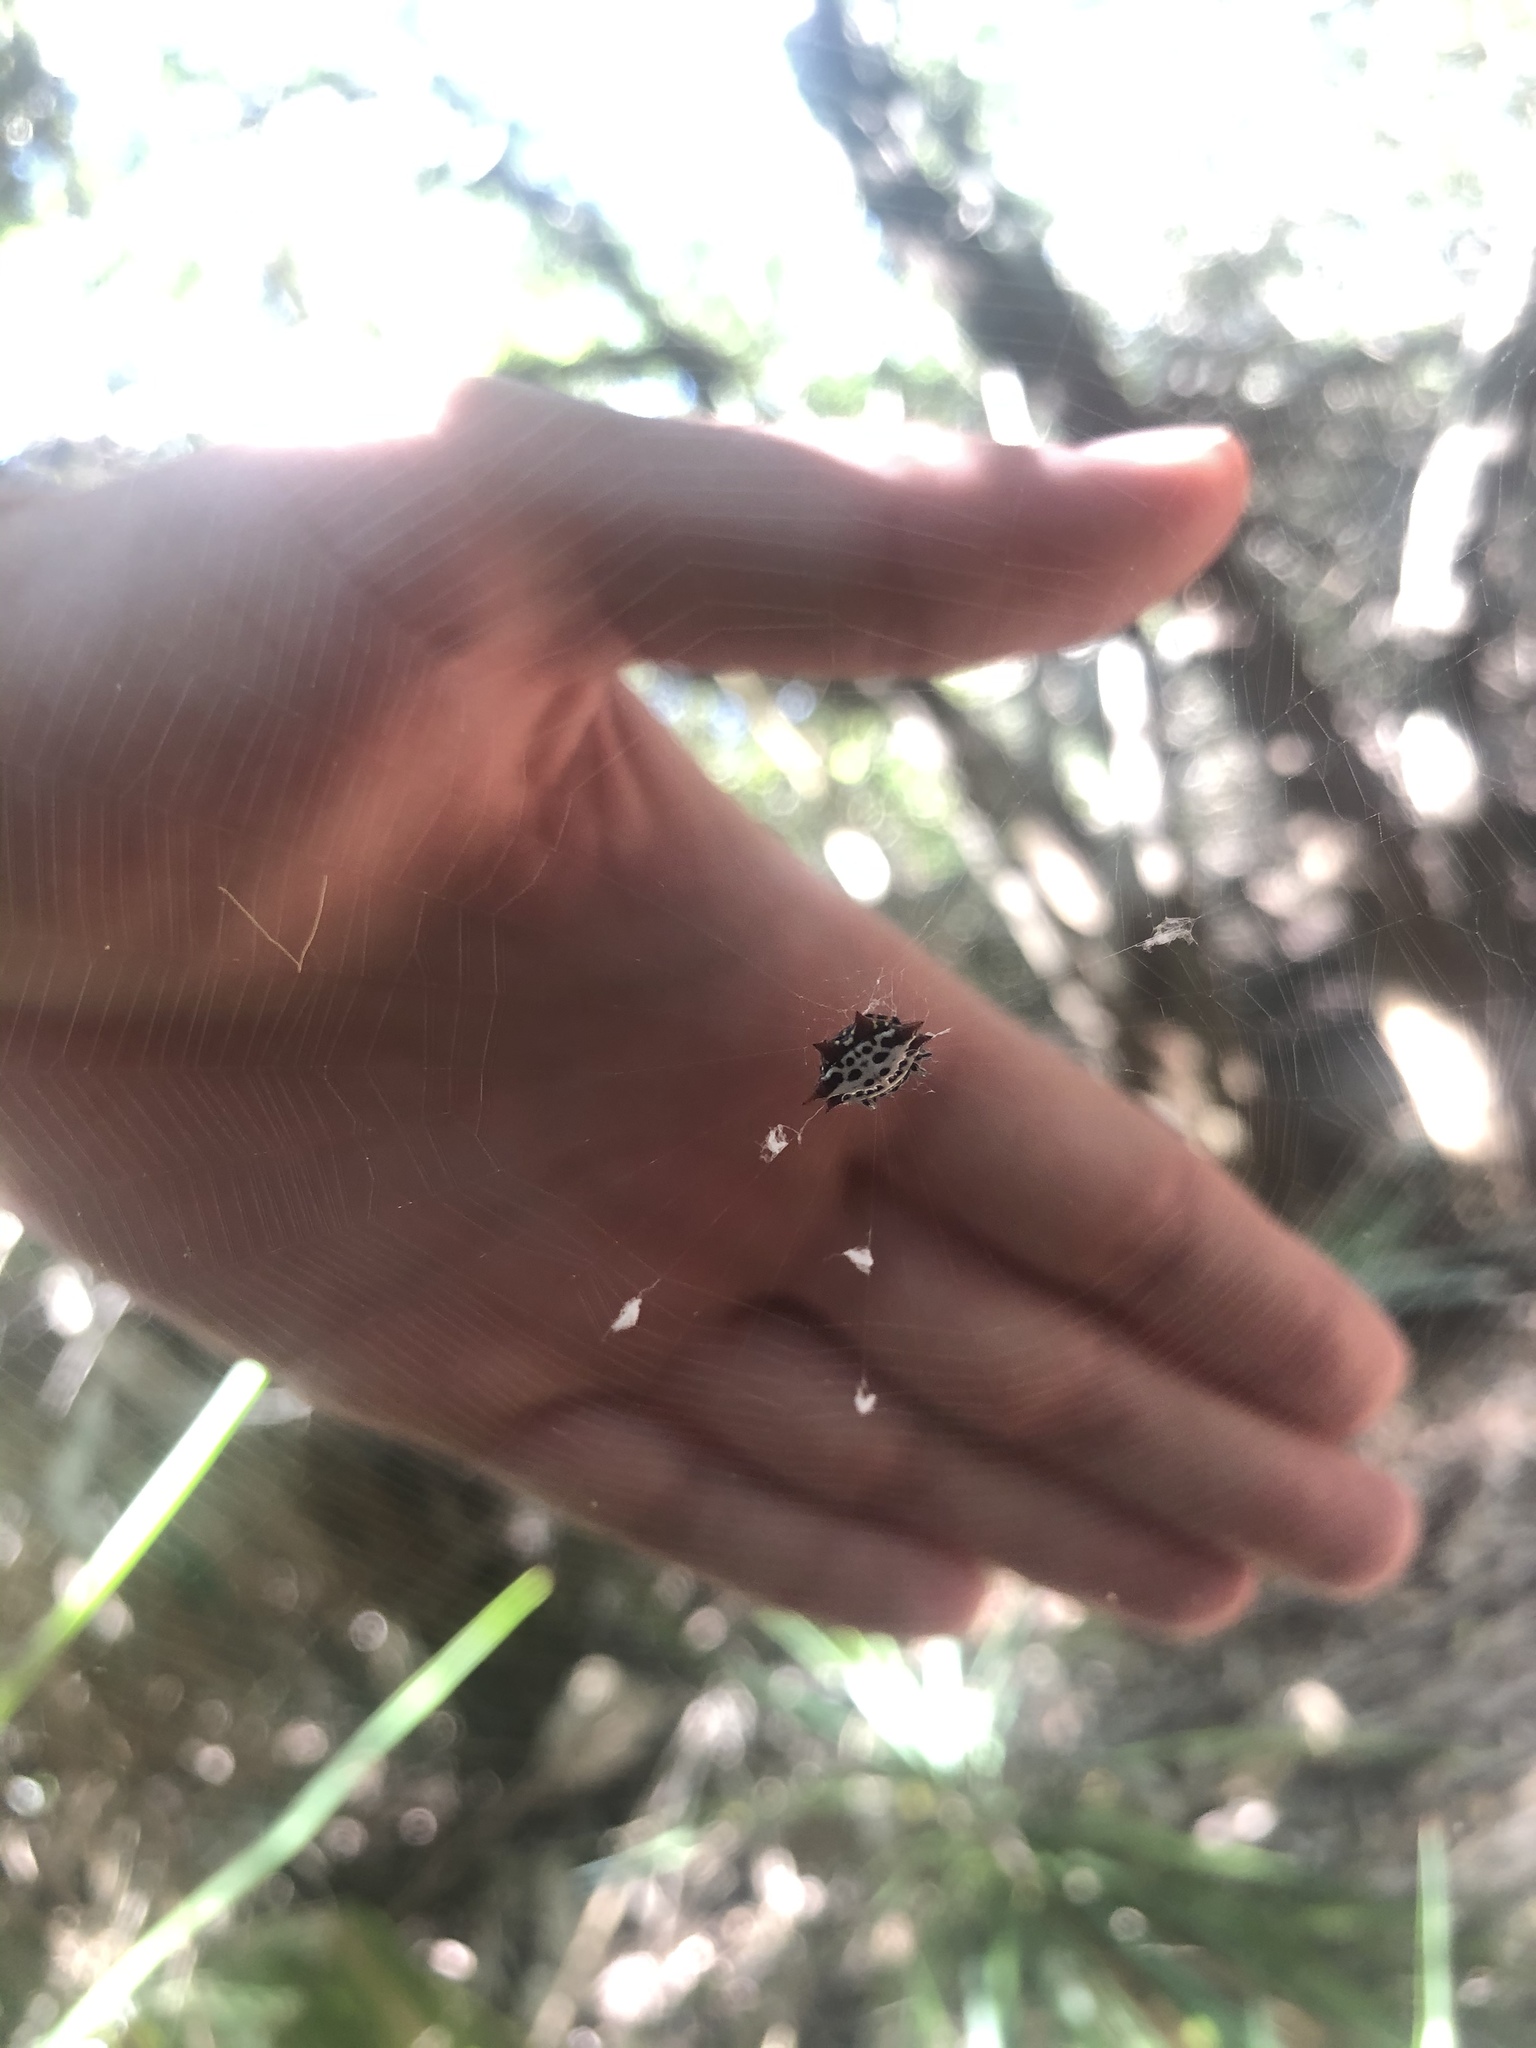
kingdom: Animalia
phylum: Arthropoda
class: Arachnida
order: Araneae
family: Araneidae
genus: Gasteracantha
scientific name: Gasteracantha cancriformis
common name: Orb weavers
